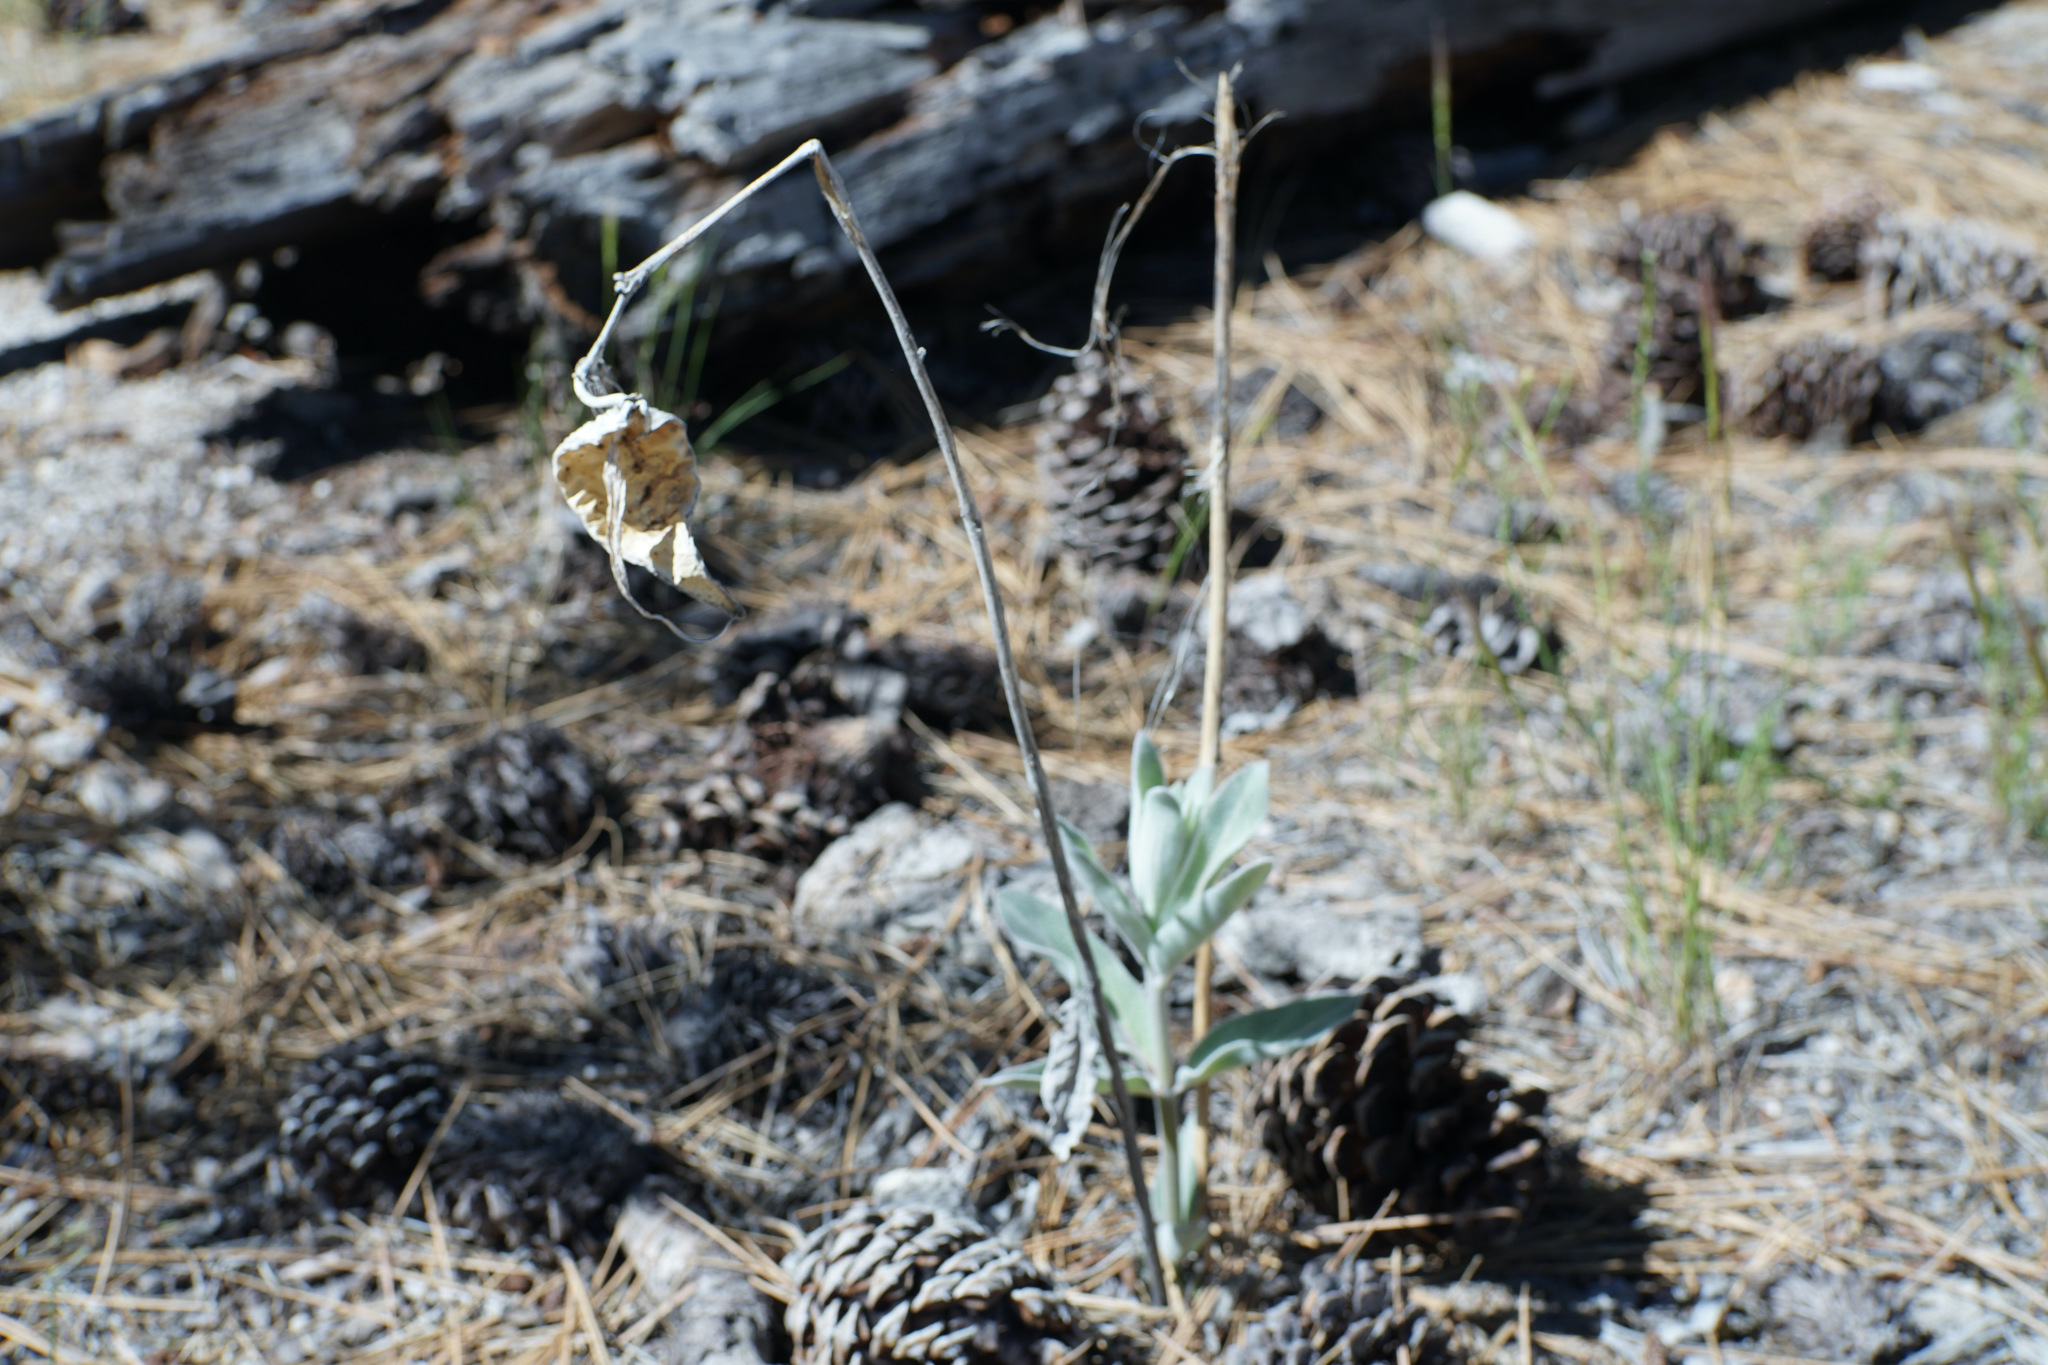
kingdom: Plantae
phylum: Tracheophyta
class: Magnoliopsida
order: Gentianales
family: Apocynaceae
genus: Asclepias
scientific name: Asclepias eriocarpa
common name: Indian milkweed
